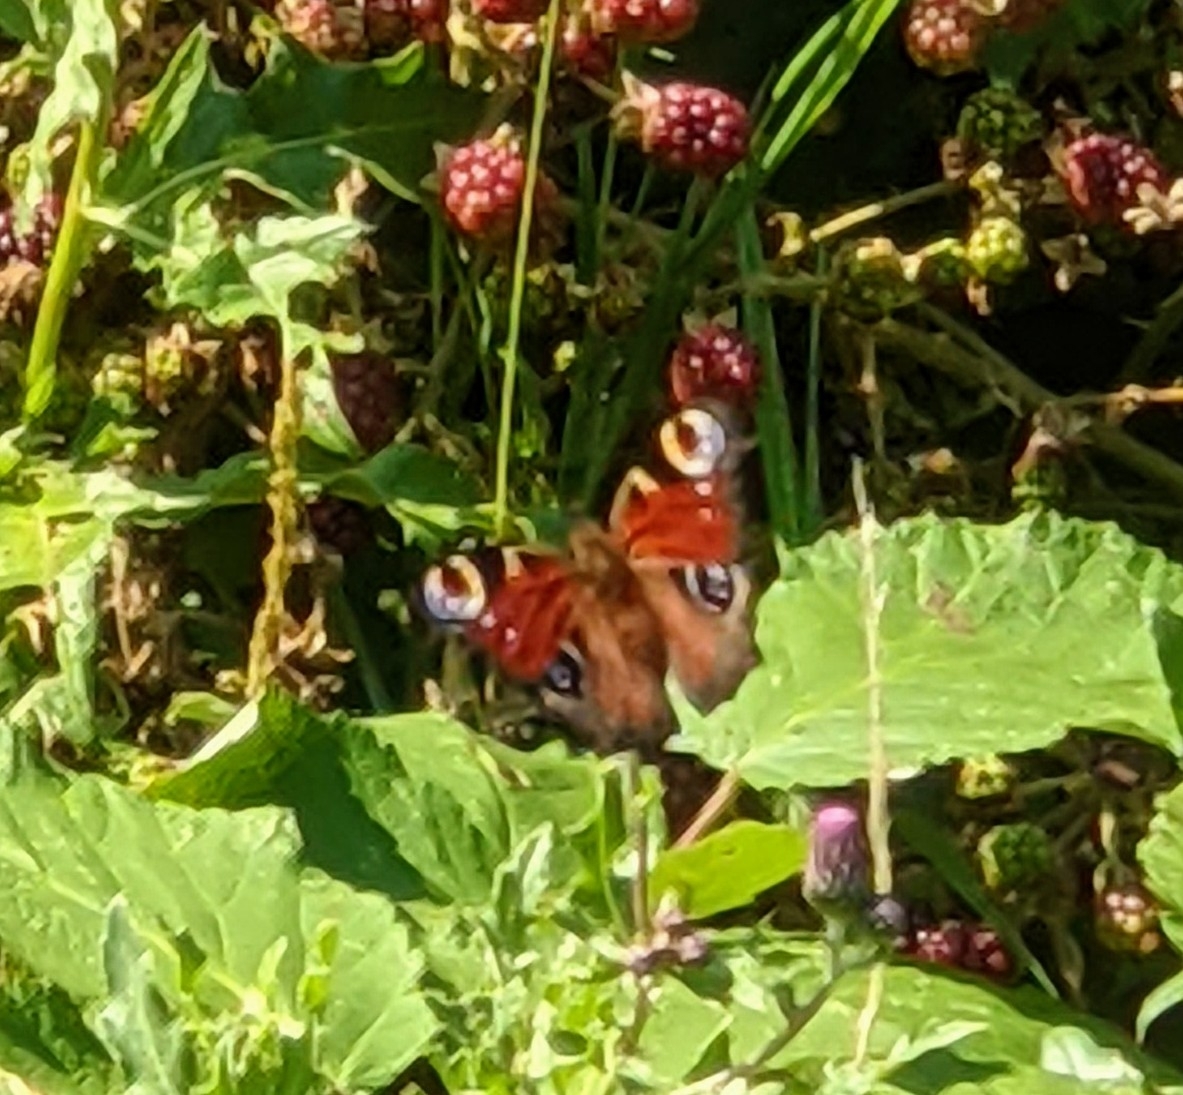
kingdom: Animalia
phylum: Arthropoda
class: Insecta
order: Lepidoptera
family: Nymphalidae
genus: Aglais
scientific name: Aglais io
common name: Peacock
